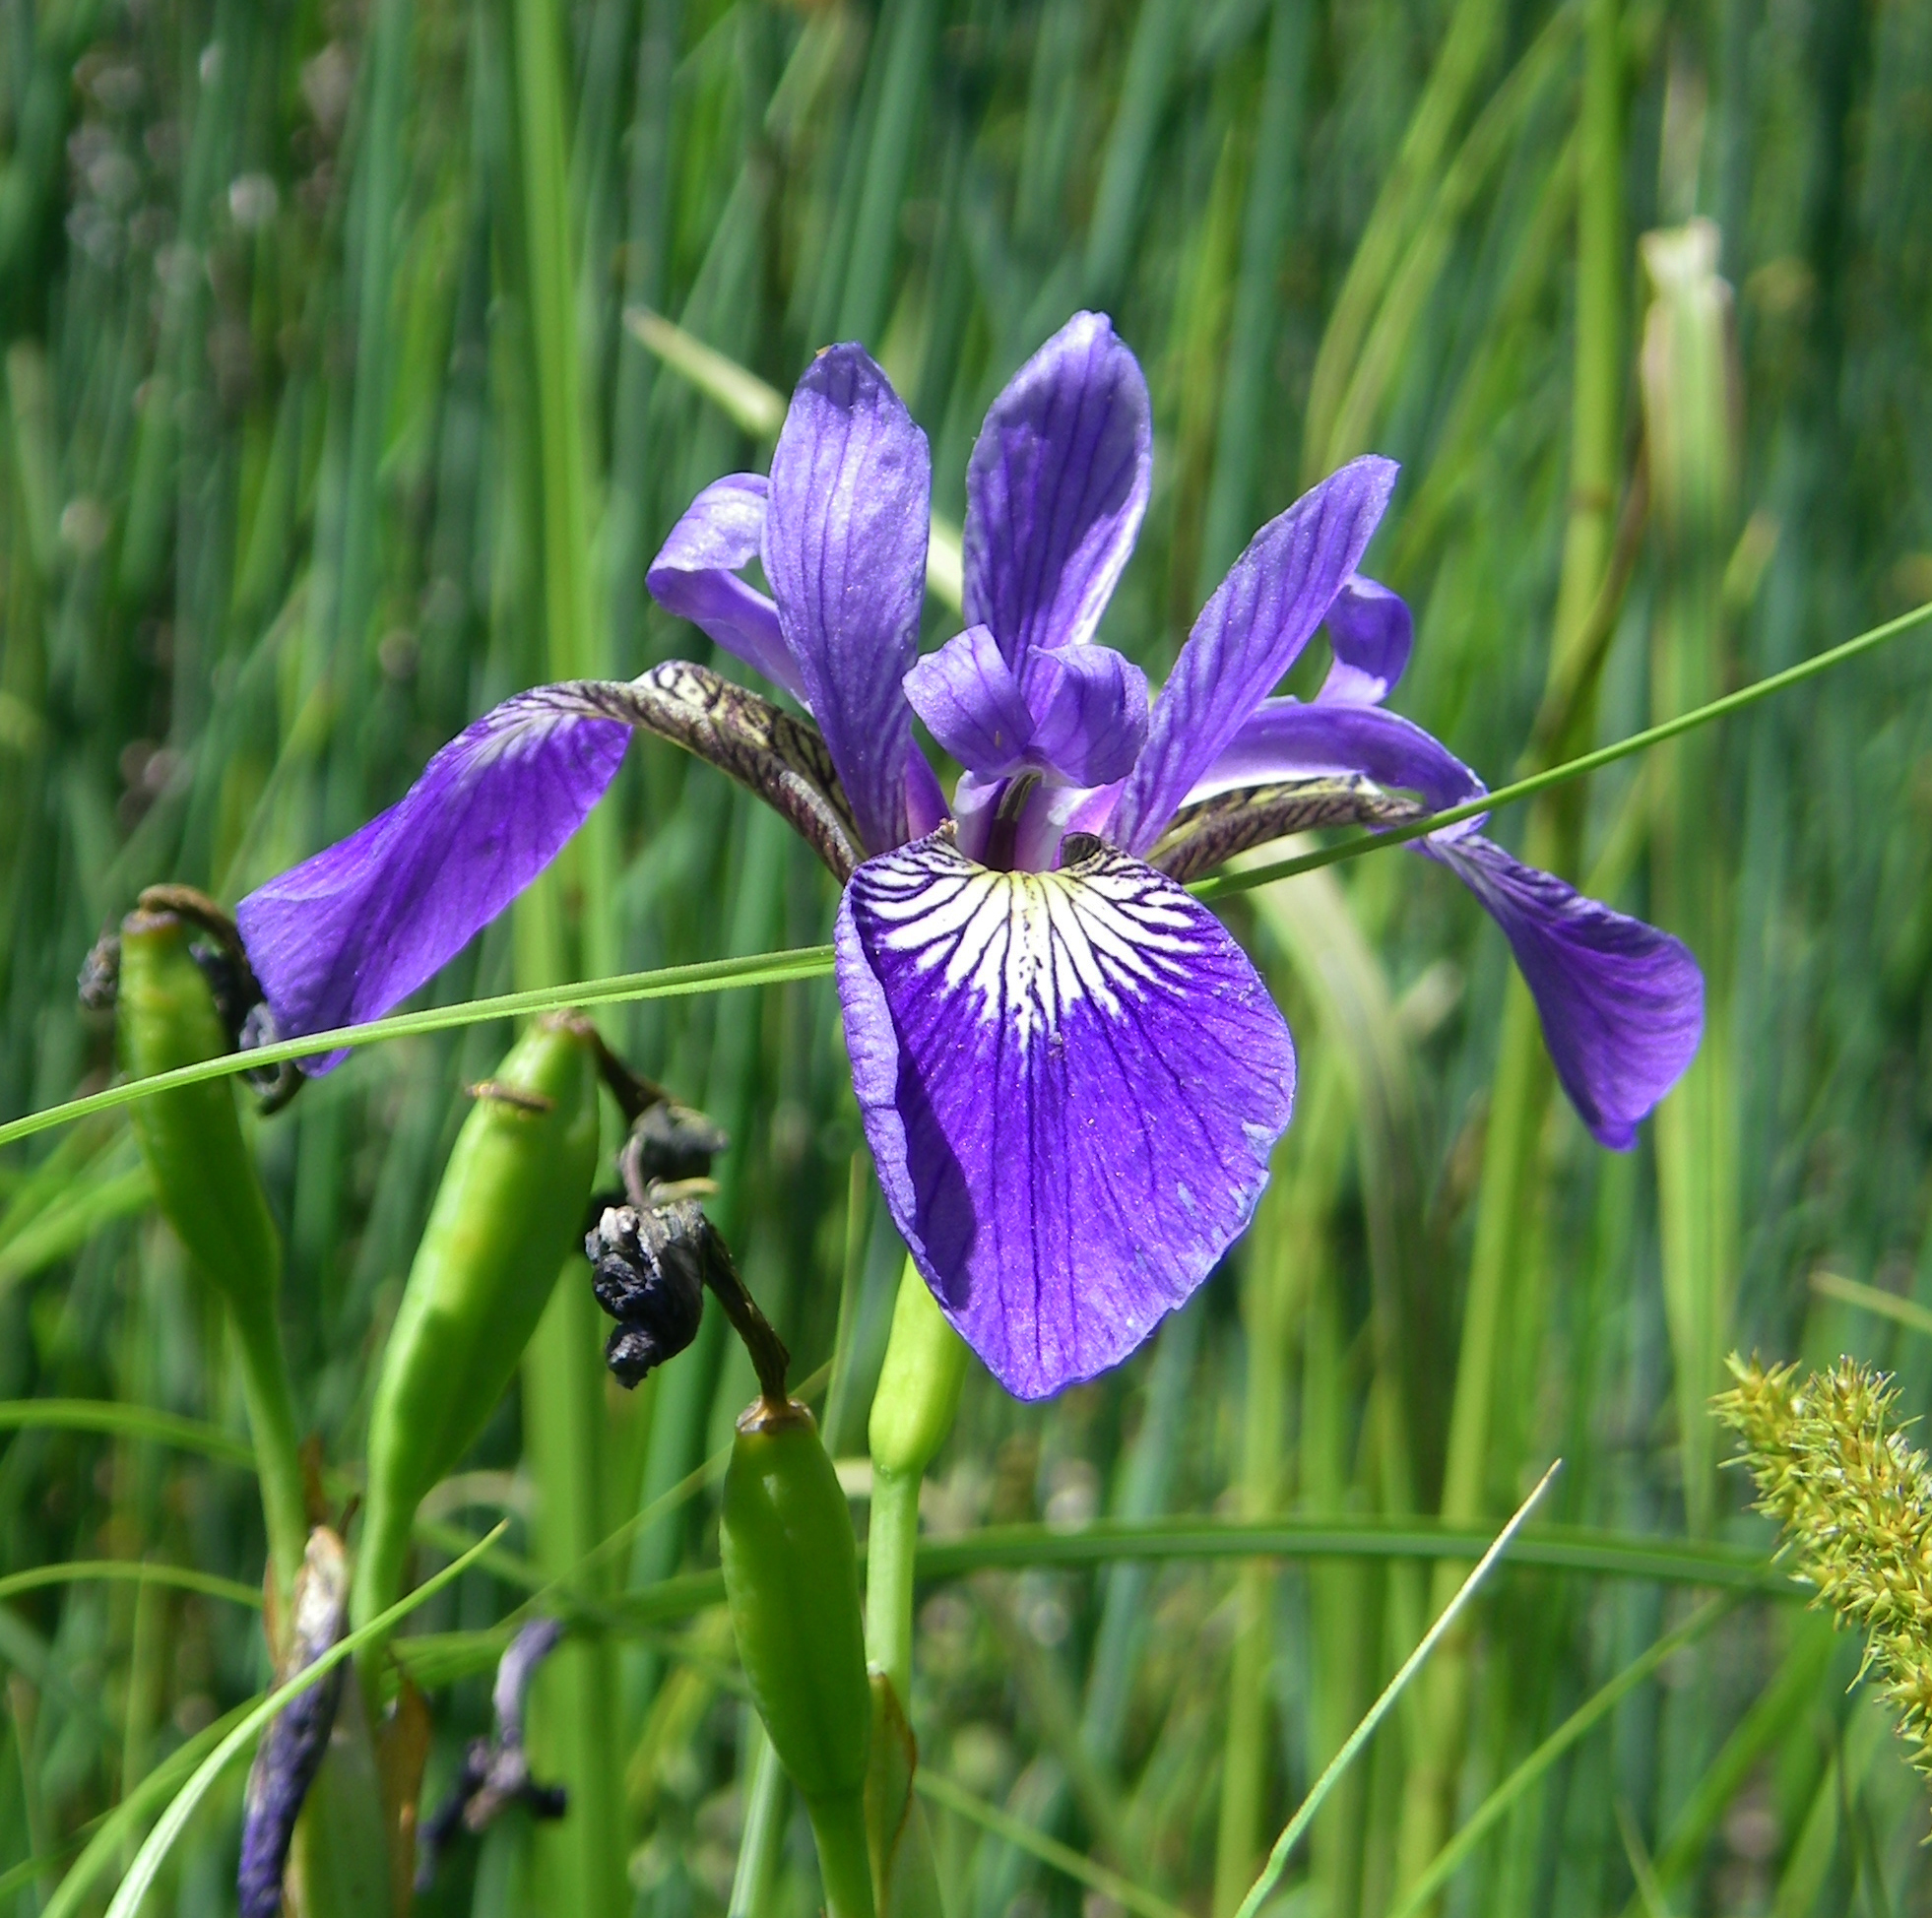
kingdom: Plantae
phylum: Tracheophyta
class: Liliopsida
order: Asparagales
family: Iridaceae
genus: Iris
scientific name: Iris versicolor
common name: Purple iris
